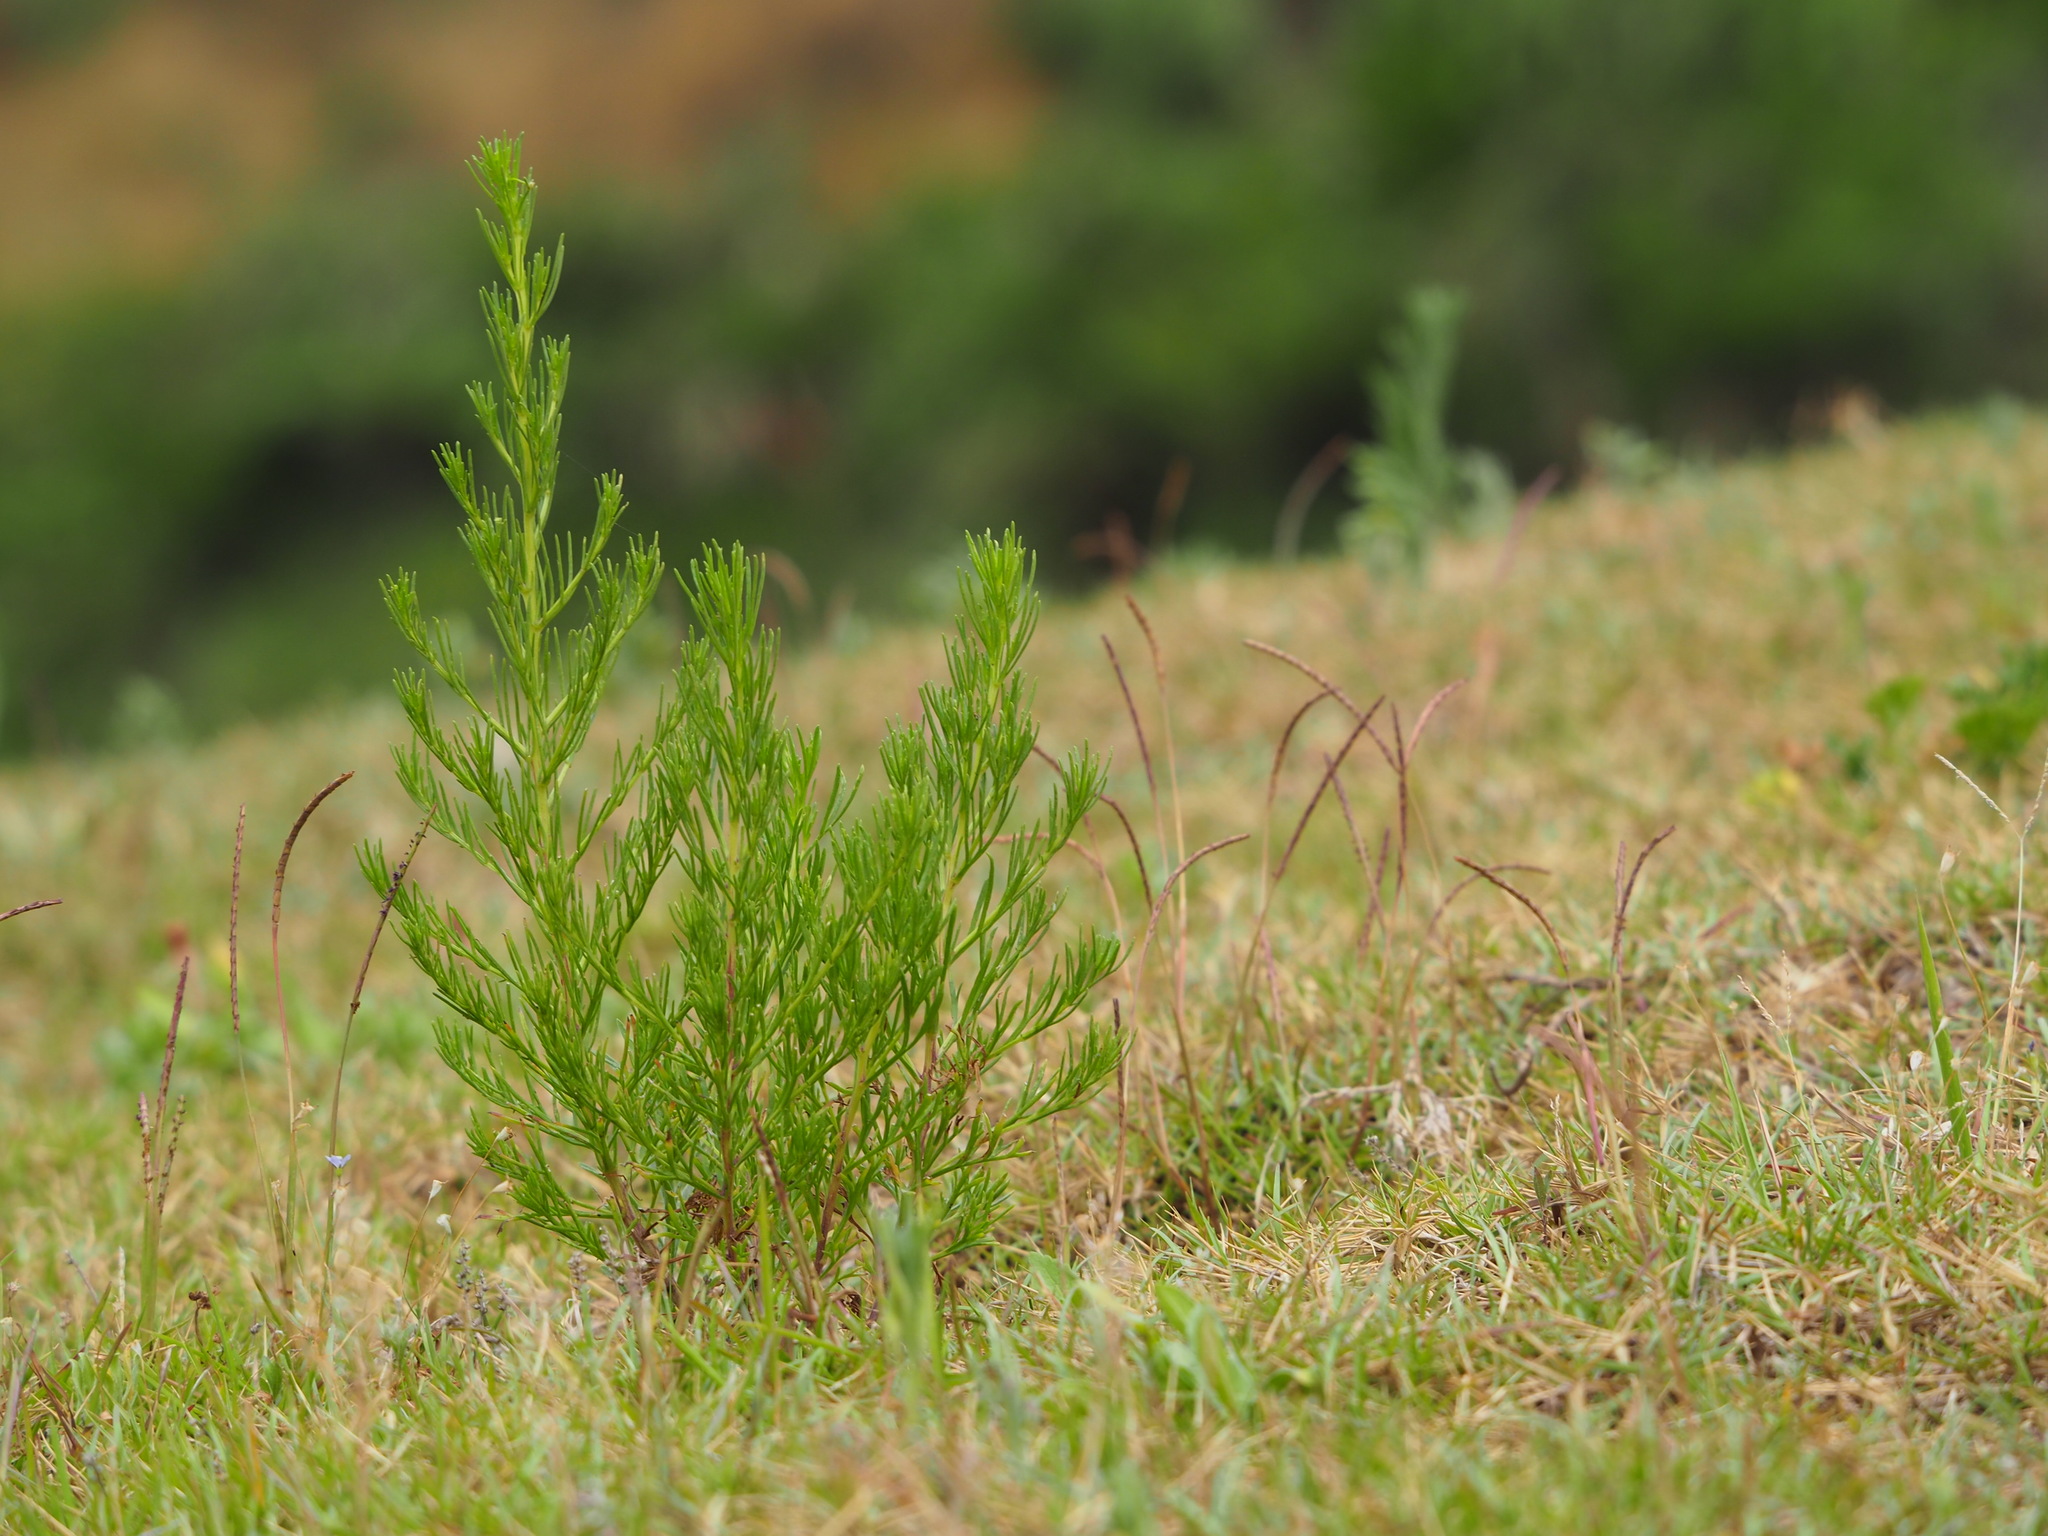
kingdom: Plantae
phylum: Tracheophyta
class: Magnoliopsida
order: Asterales
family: Asteraceae
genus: Artemisia
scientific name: Artemisia capillaris
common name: Yin-chen wormwood
